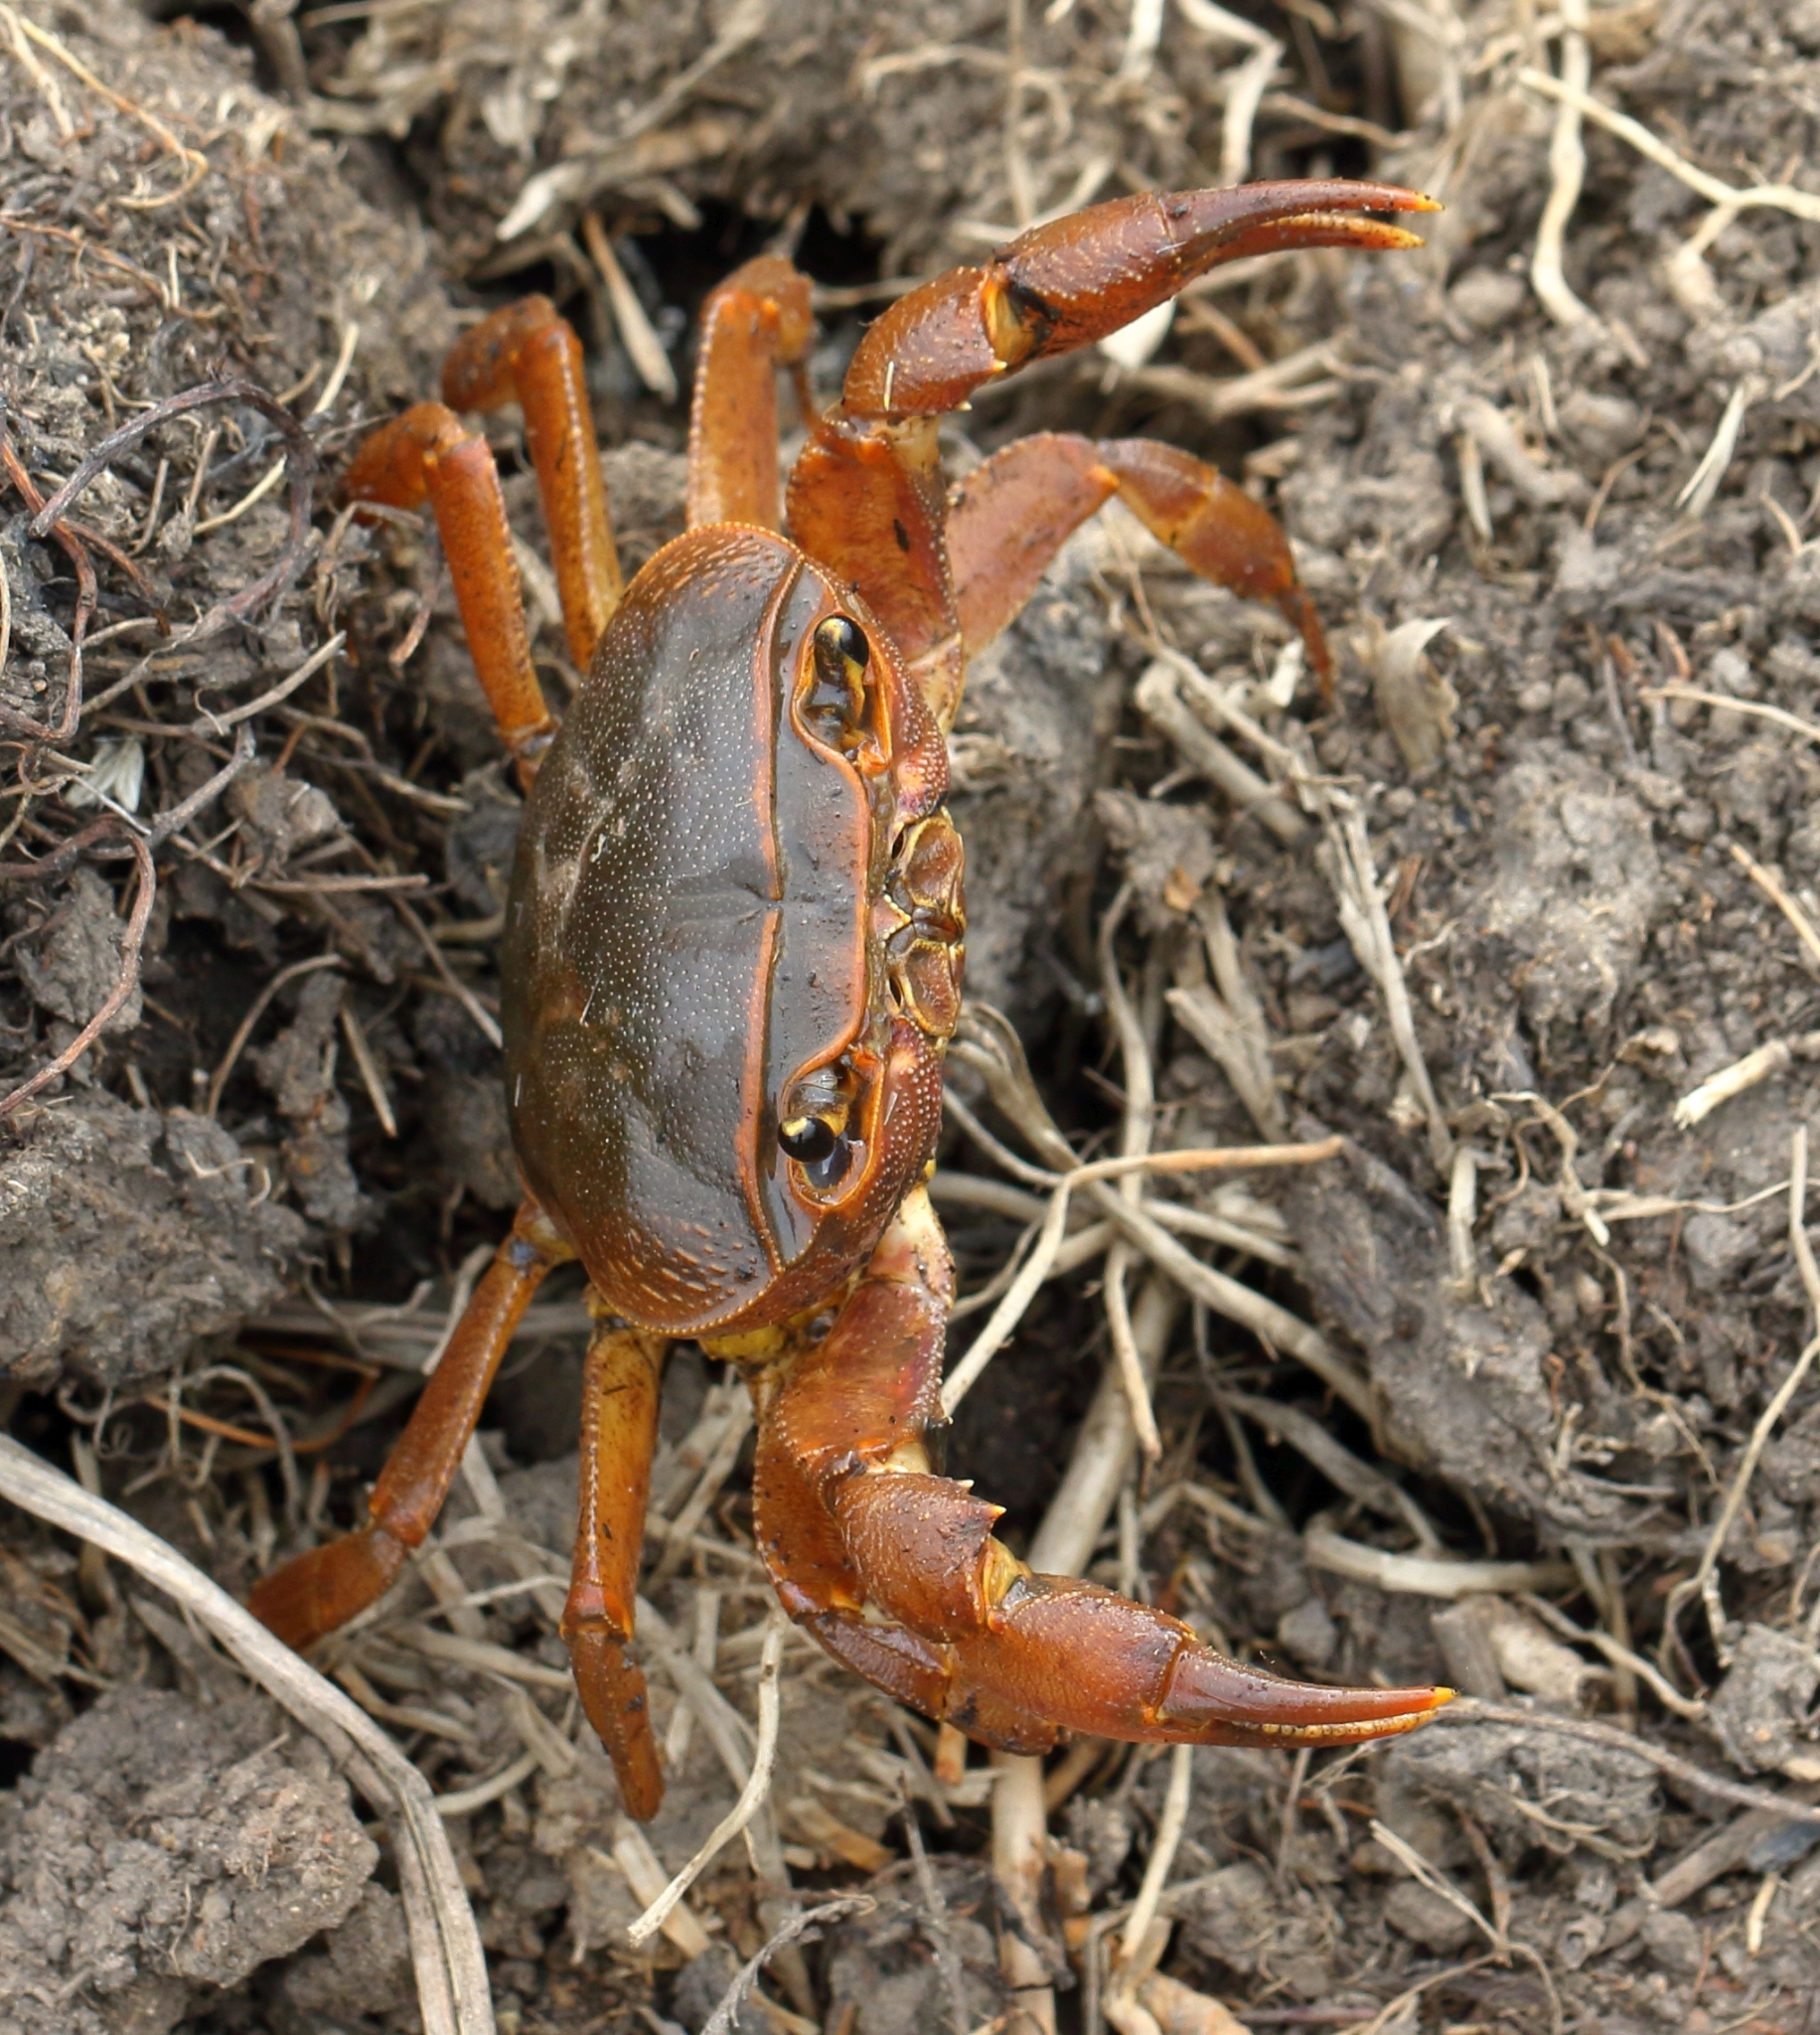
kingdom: Animalia
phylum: Arthropoda
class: Malacostraca
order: Decapoda
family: Potamonautidae
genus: Potamonautes
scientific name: Potamonautes sidneyi
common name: Natal river crab
